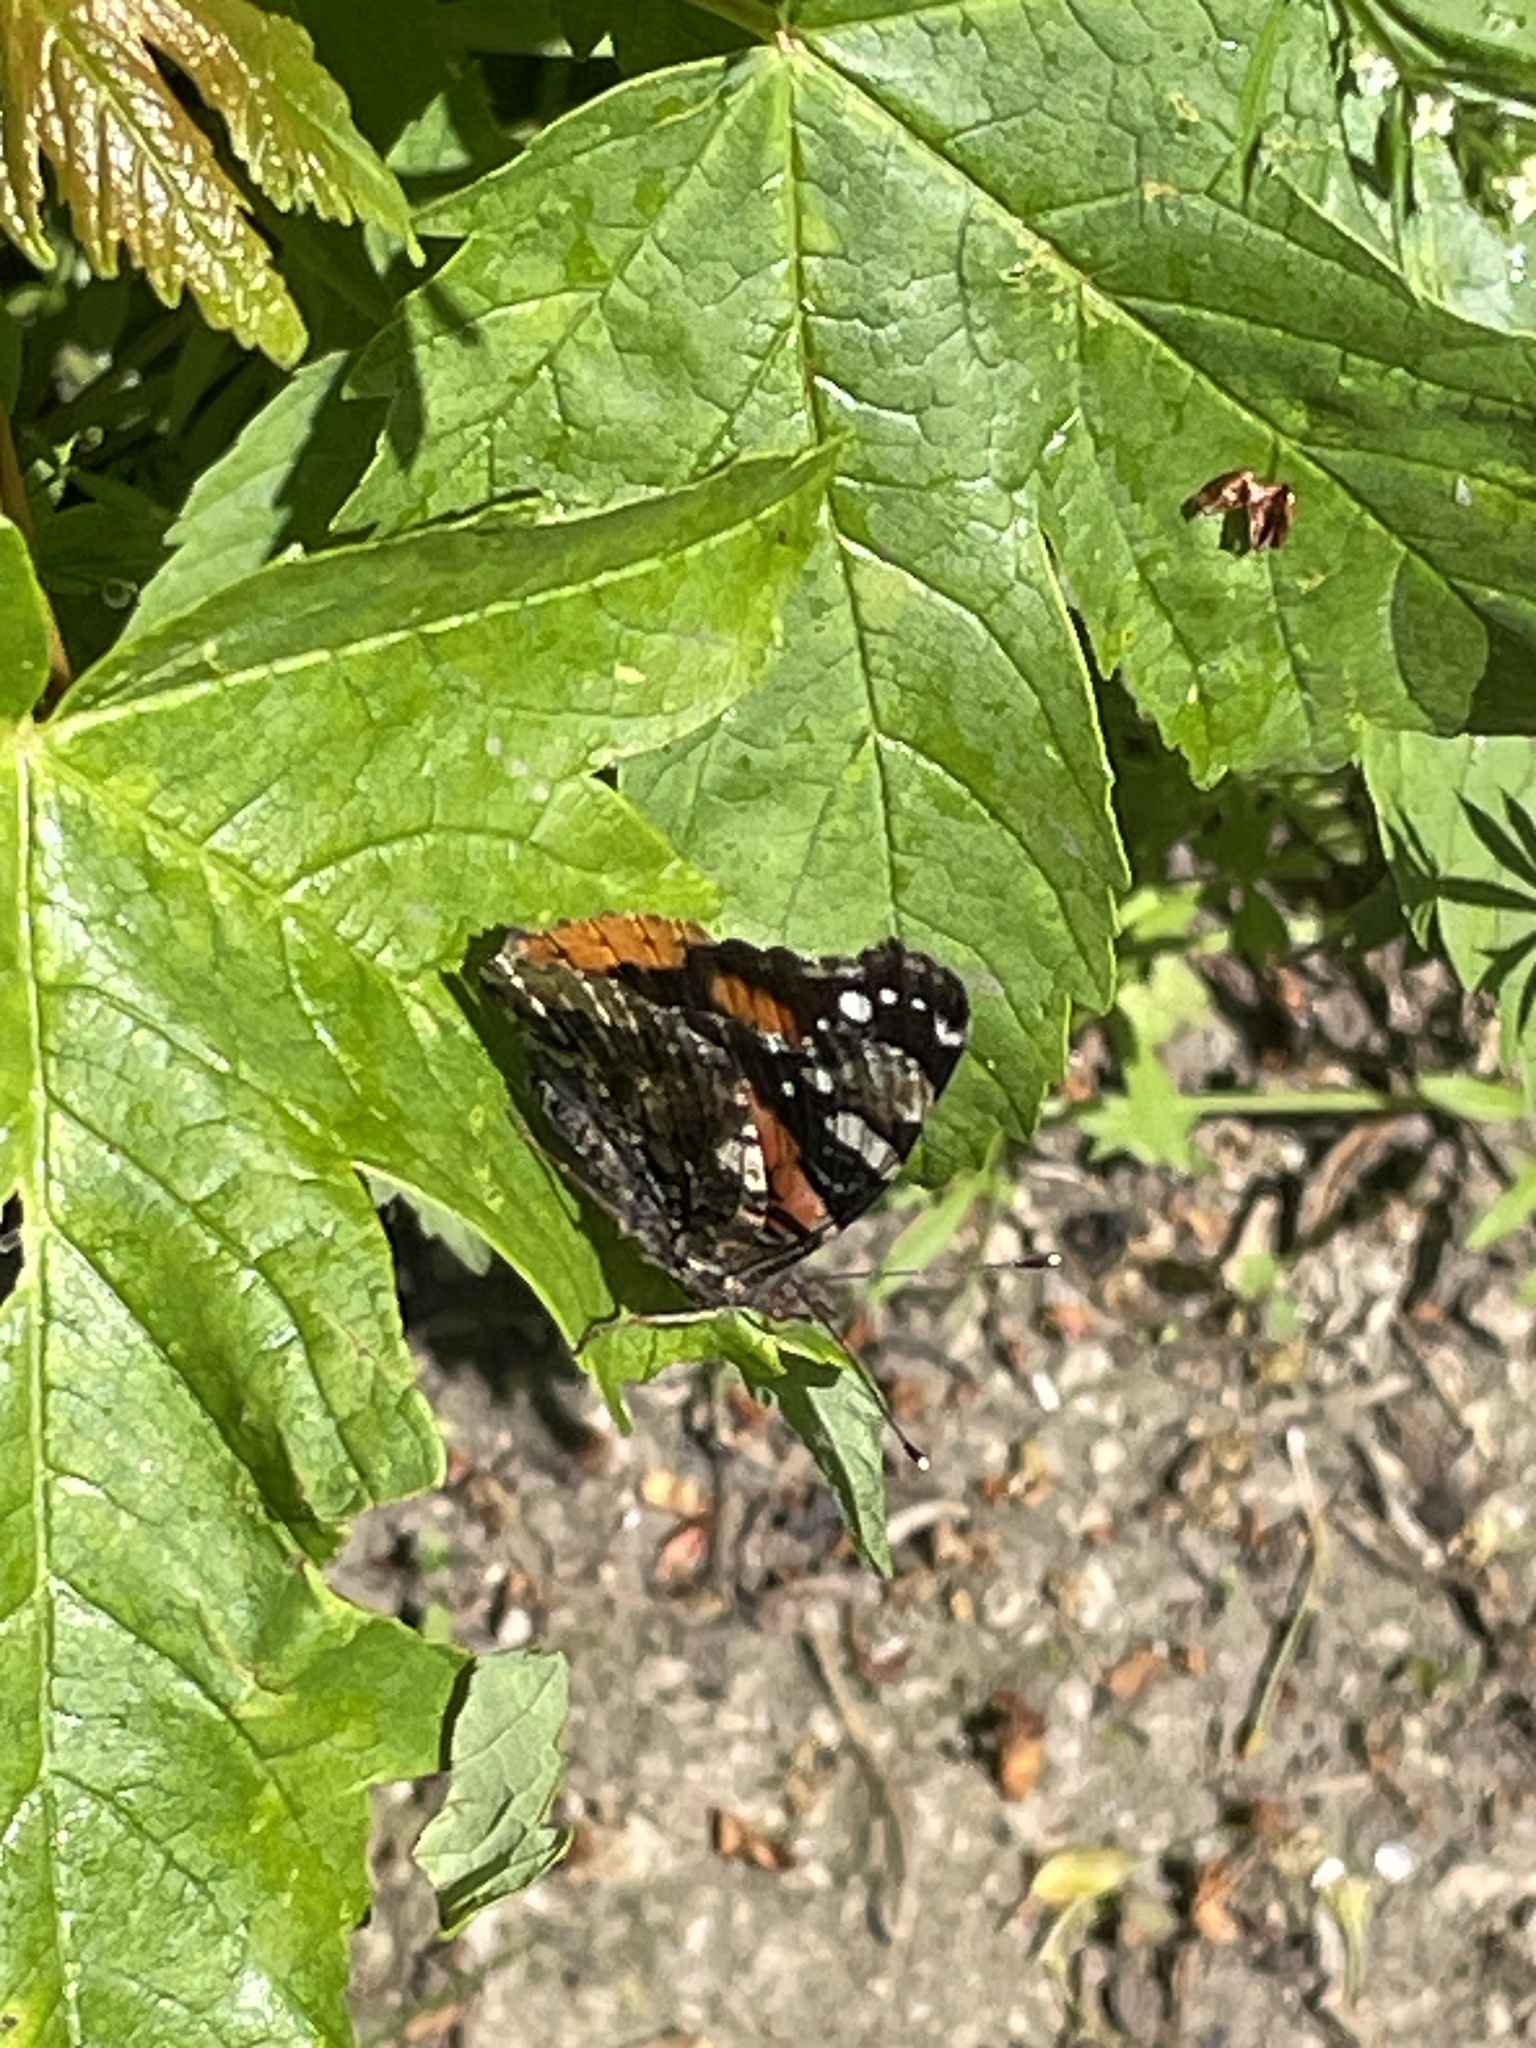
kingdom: Animalia
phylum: Arthropoda
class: Insecta
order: Lepidoptera
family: Nymphalidae
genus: Vanessa
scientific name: Vanessa atalanta
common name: Red admiral
